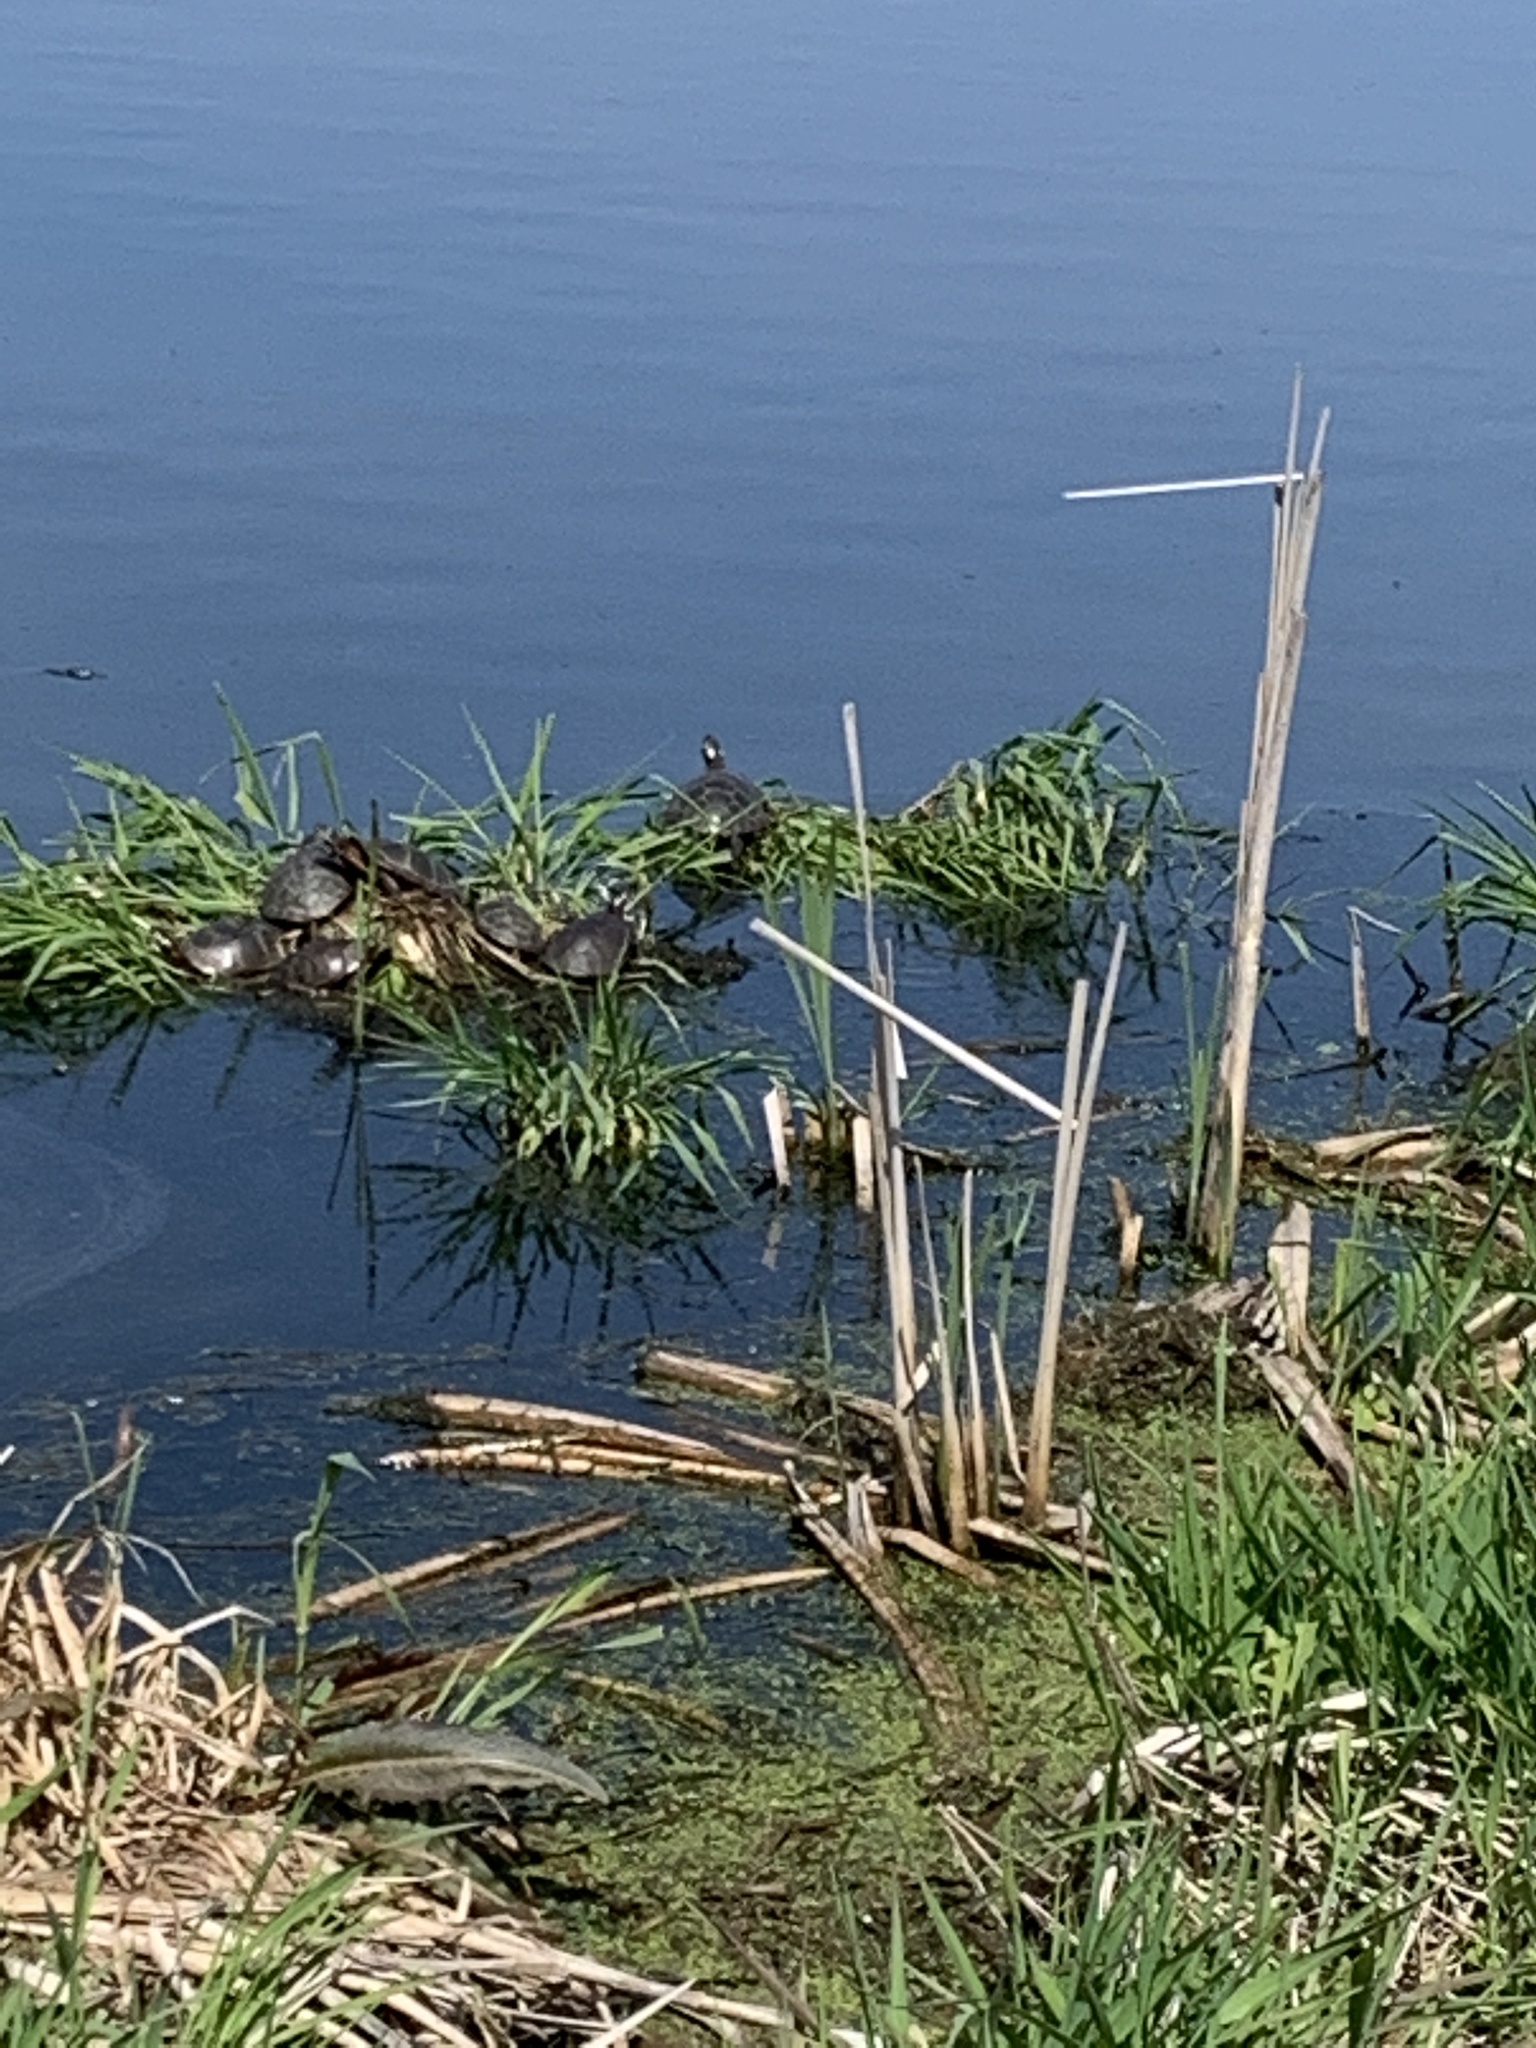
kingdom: Animalia
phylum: Chordata
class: Testudines
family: Emydidae
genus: Chrysemys
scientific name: Chrysemys picta
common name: Painted turtle
